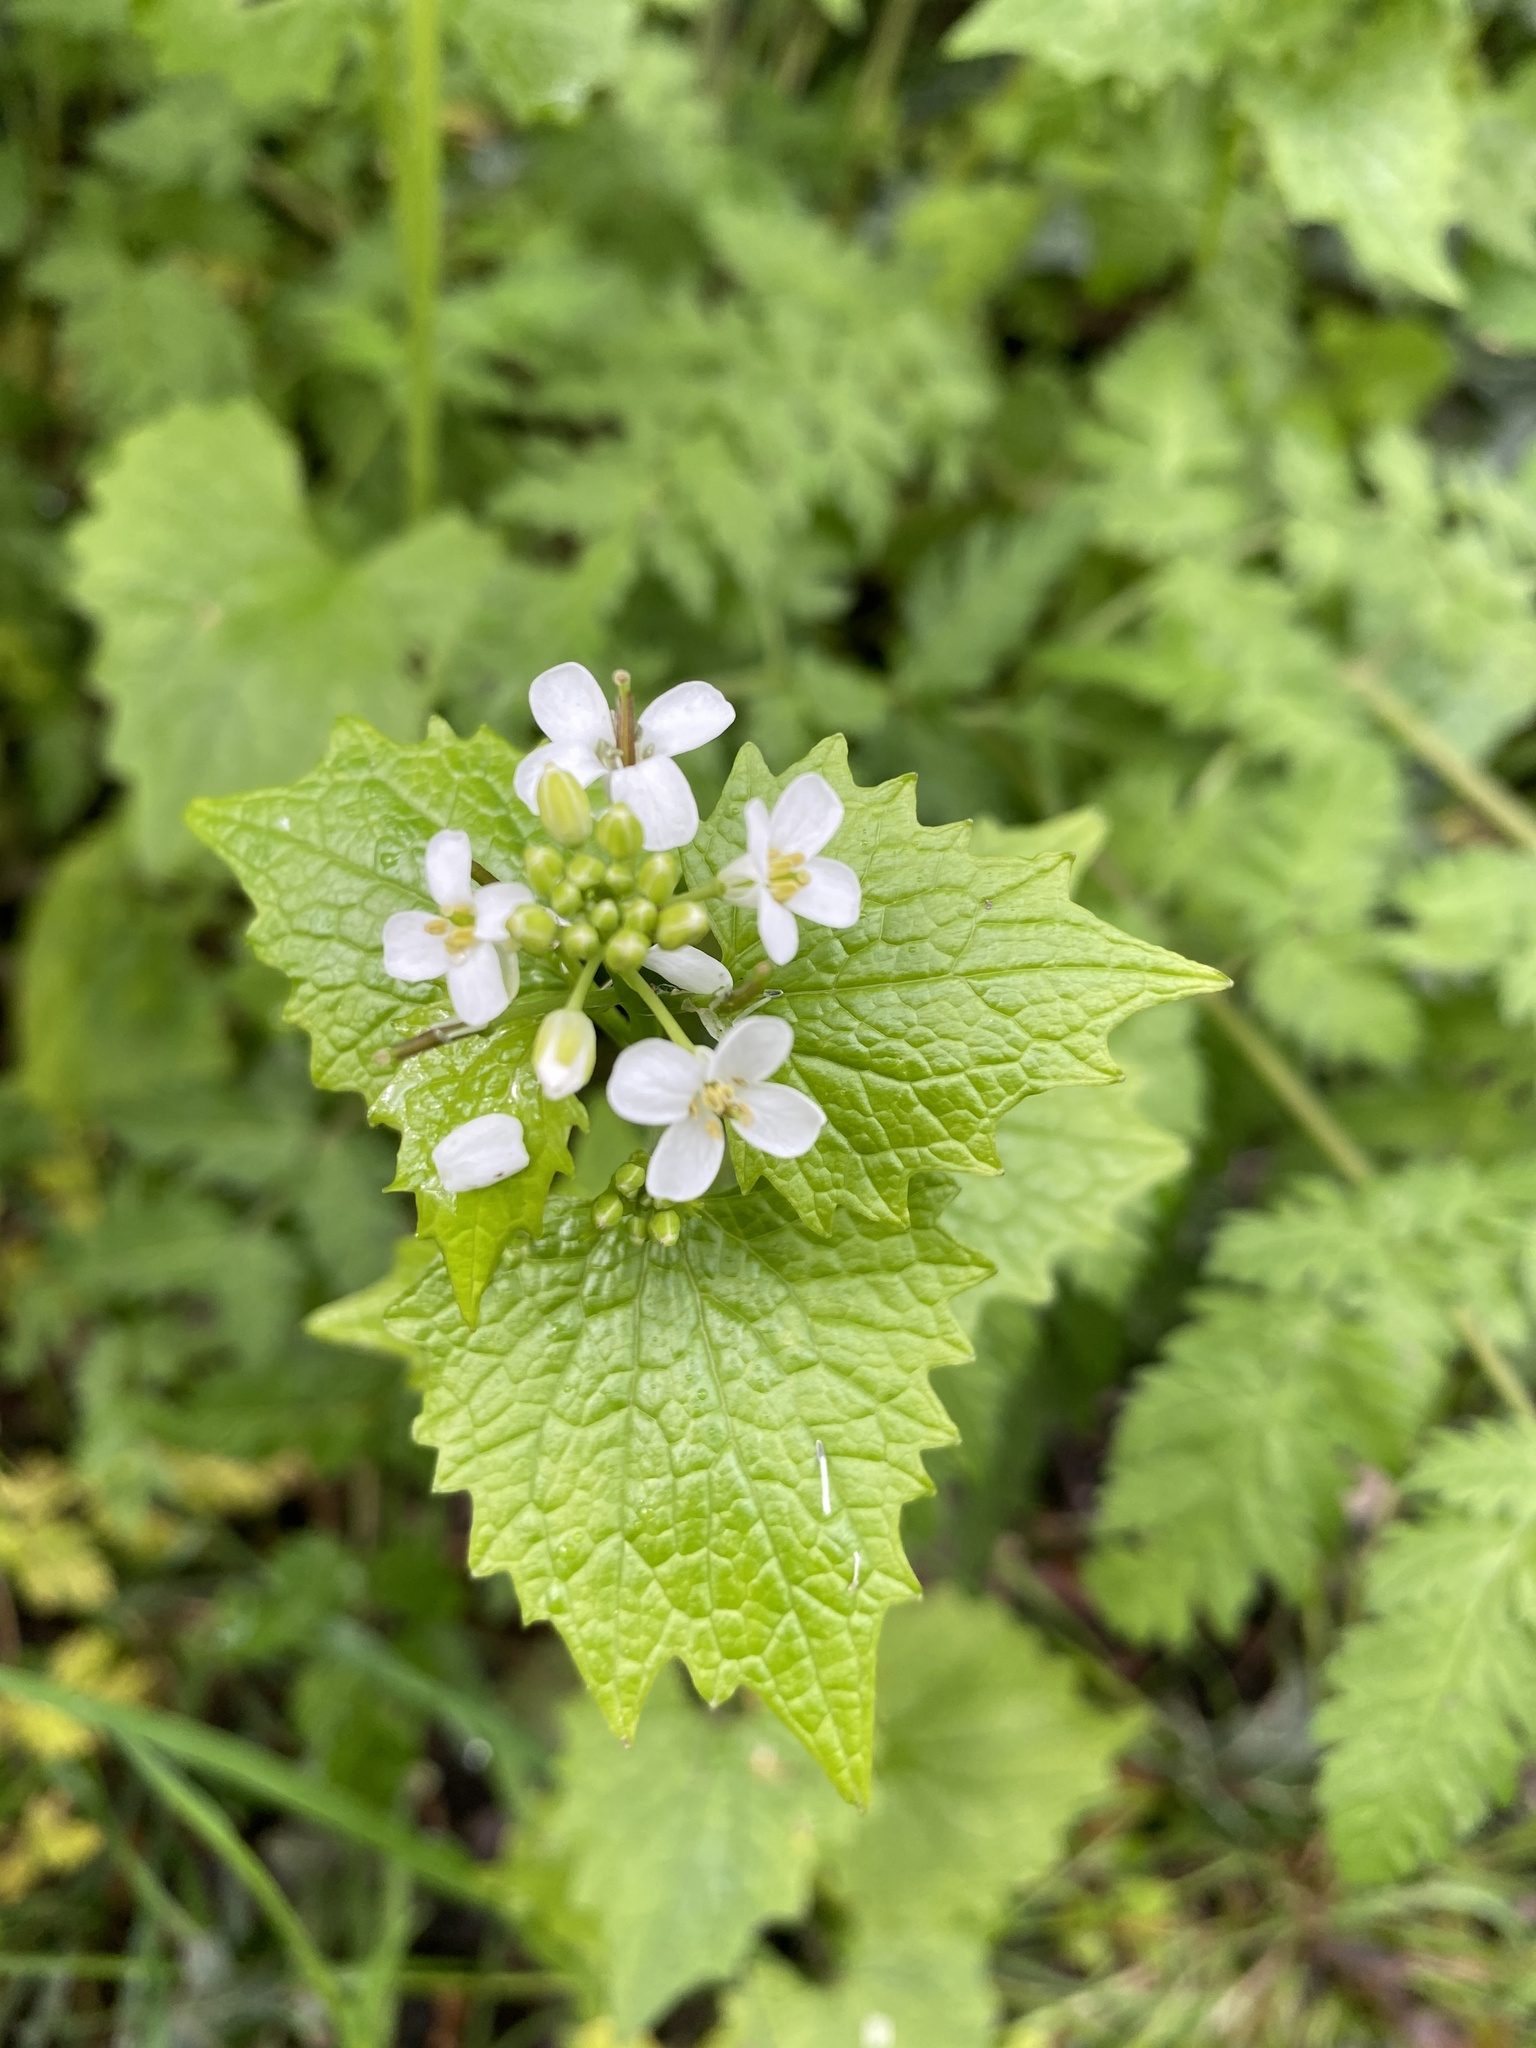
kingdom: Plantae
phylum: Tracheophyta
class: Magnoliopsida
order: Brassicales
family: Brassicaceae
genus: Alliaria
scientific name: Alliaria petiolata
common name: Garlic mustard
